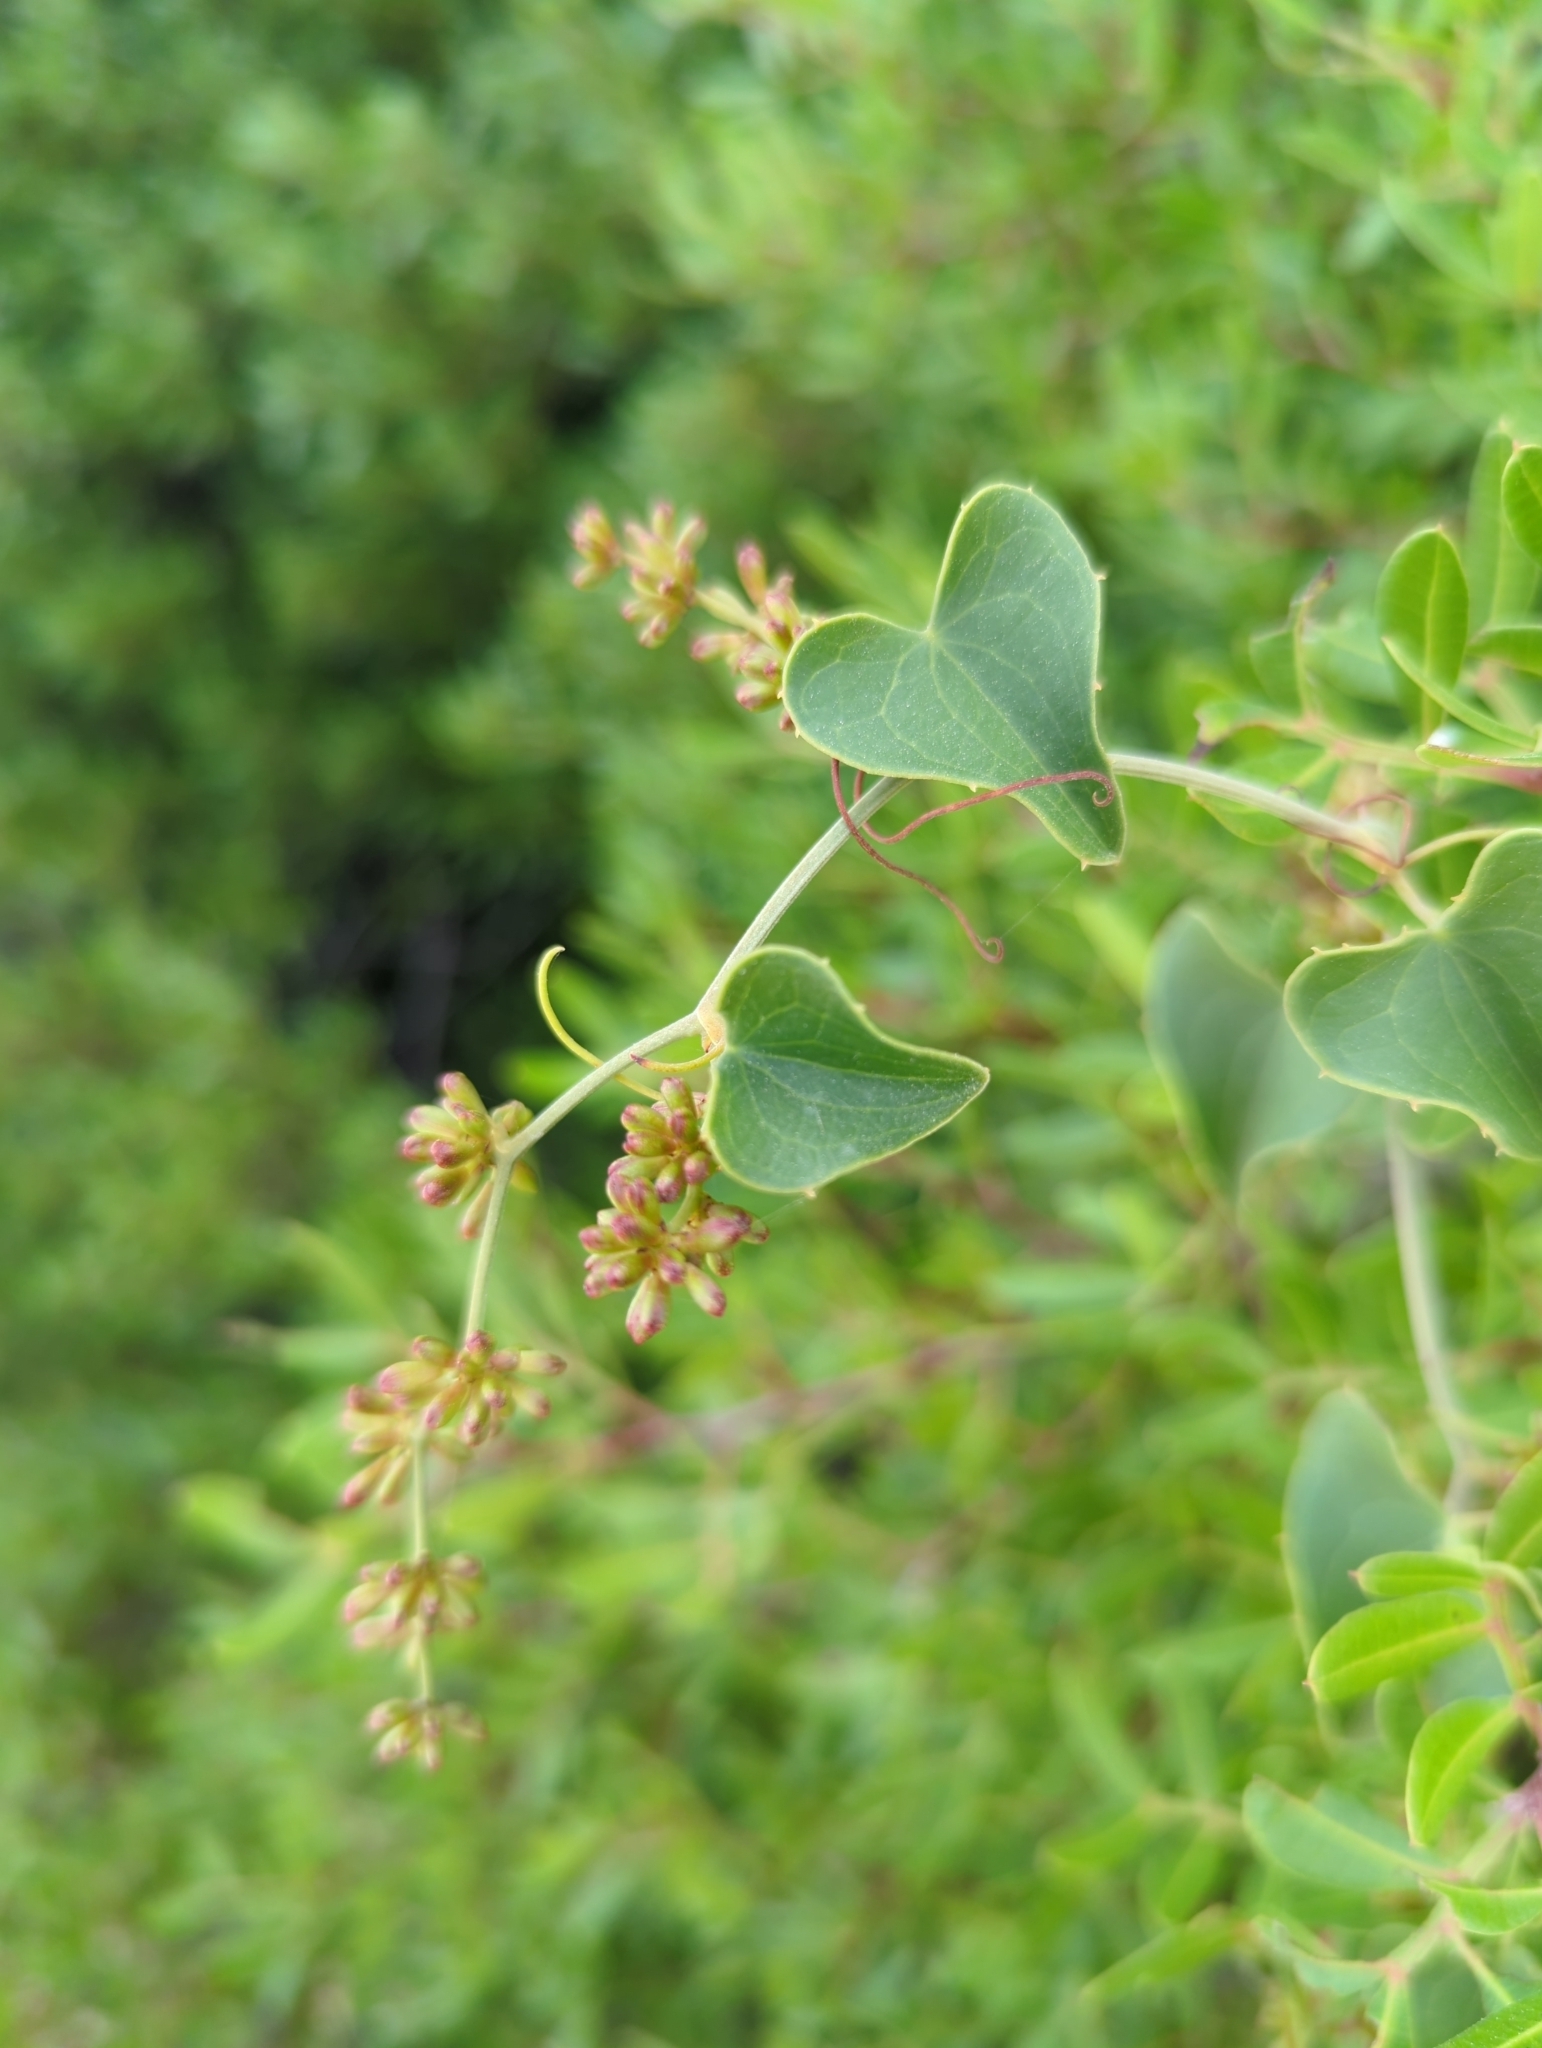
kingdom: Plantae
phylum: Tracheophyta
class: Liliopsida
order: Liliales
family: Smilacaceae
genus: Smilax
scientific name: Smilax aspera
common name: Common smilax
